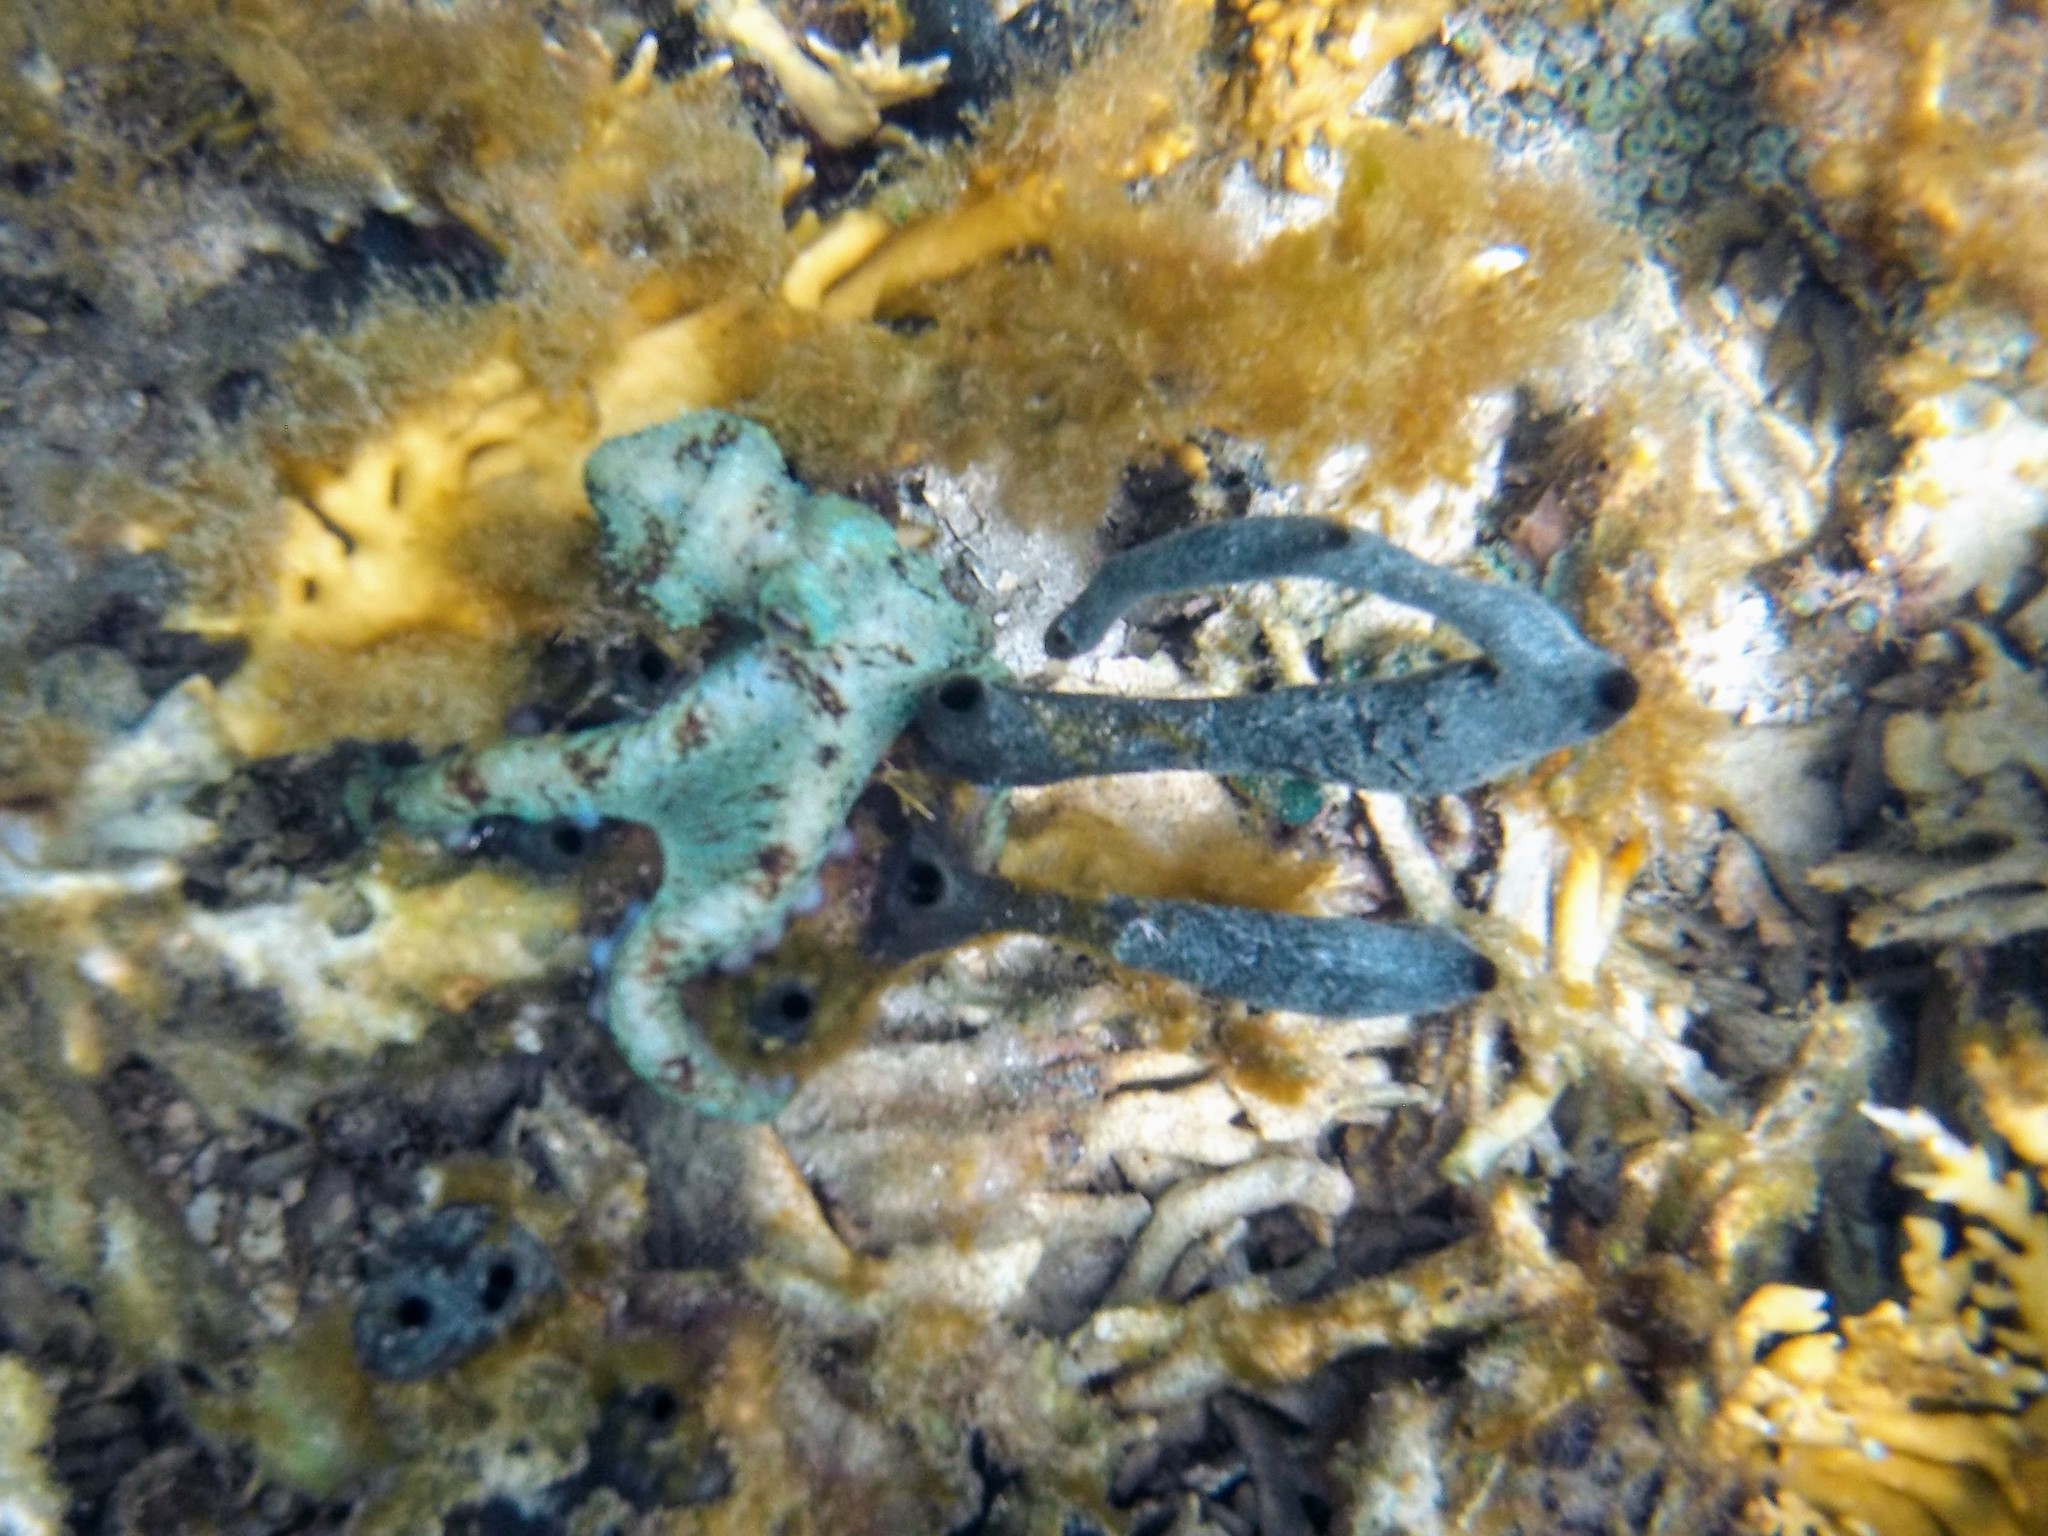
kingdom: Animalia
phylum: Mollusca
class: Cephalopoda
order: Octopoda
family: Octopodidae
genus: Octopus
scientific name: Octopus briareus
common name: Caribbean reef octopus
